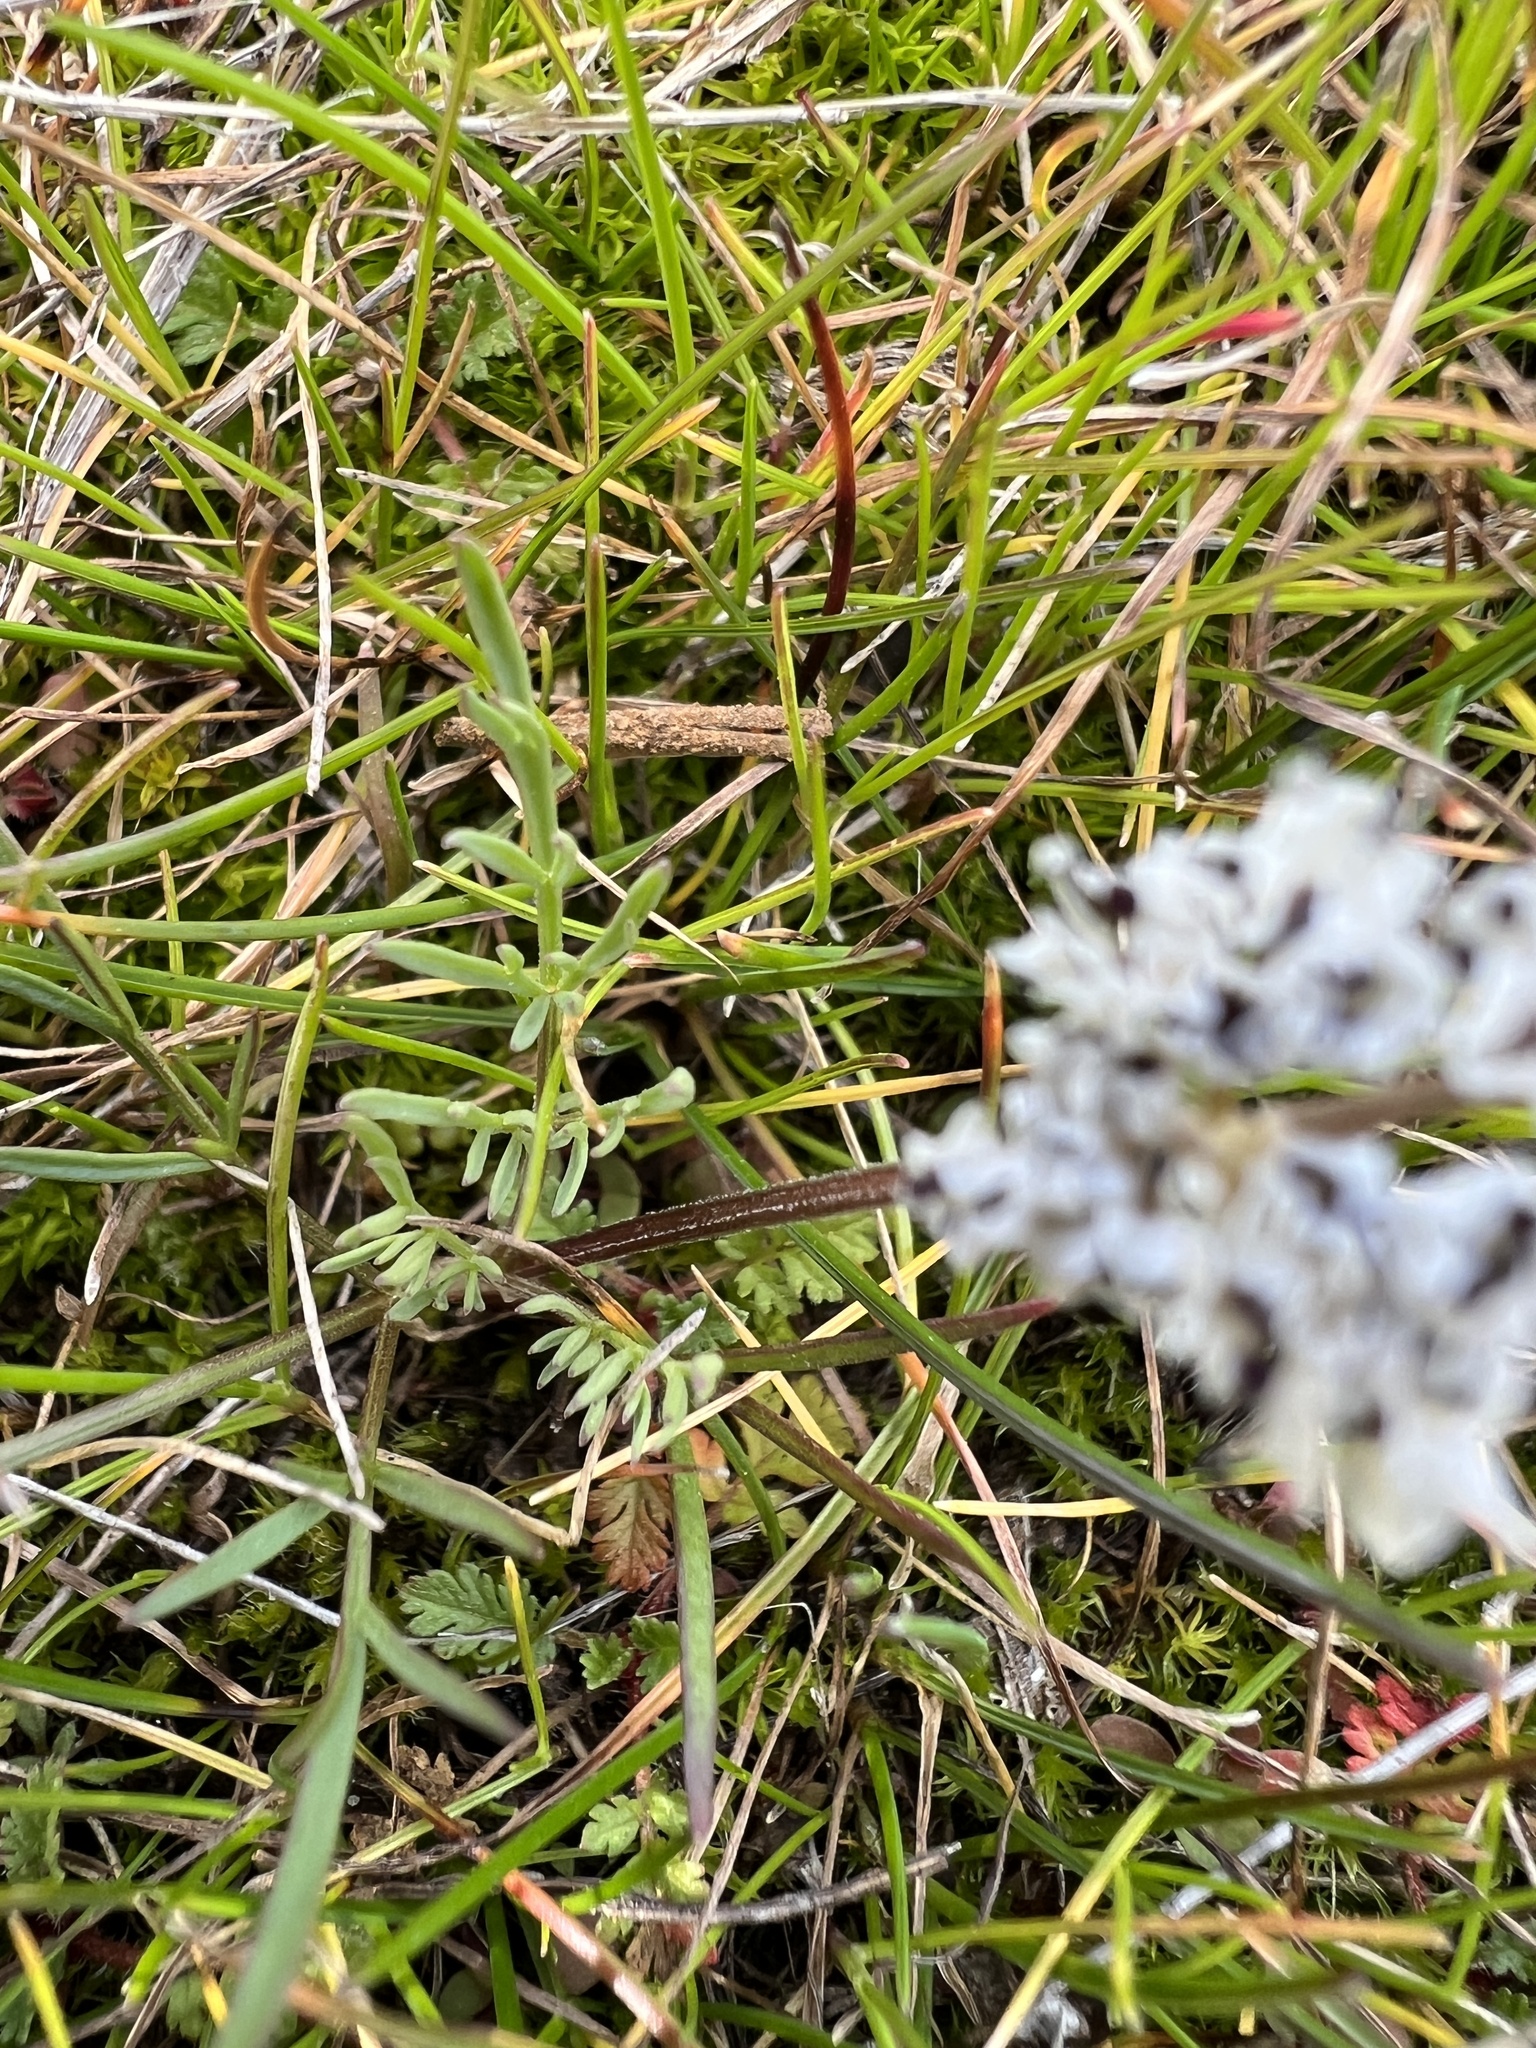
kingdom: Plantae
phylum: Tracheophyta
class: Magnoliopsida
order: Apiales
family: Apiaceae
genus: Lomatium
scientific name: Lomatium gormanii
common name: Gorman's biscuitroot
